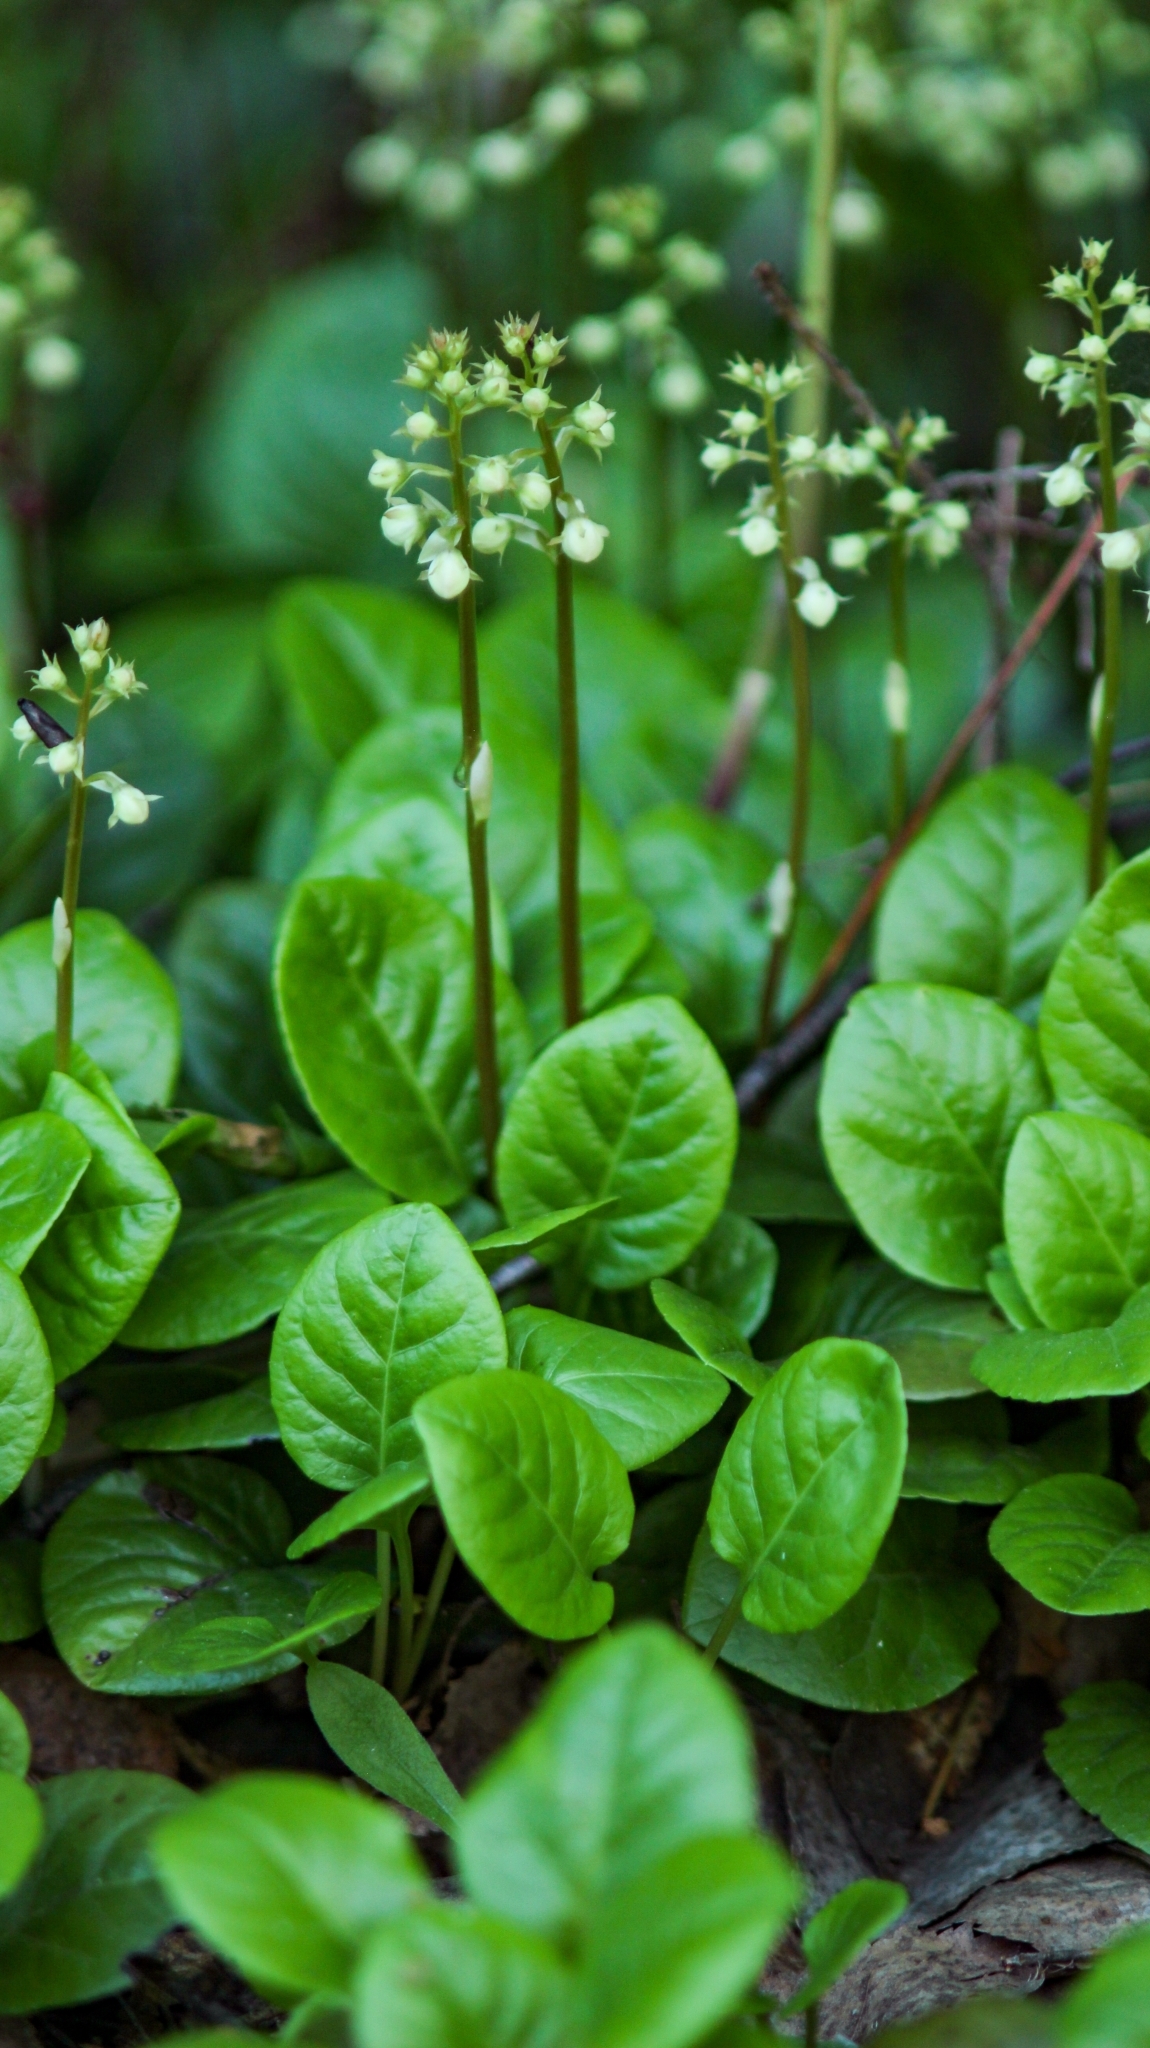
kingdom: Plantae
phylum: Tracheophyta
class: Magnoliopsida
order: Ericales
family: Ericaceae
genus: Pyrola
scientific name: Pyrola rotundifolia
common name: Round-leaved wintergreen
